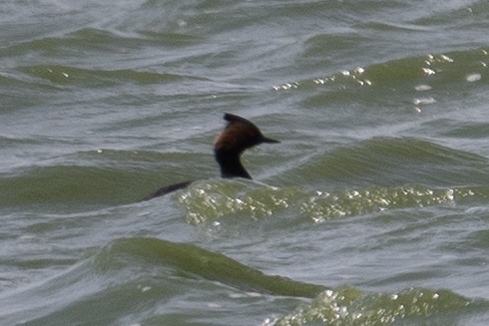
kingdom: Animalia
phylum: Chordata
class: Aves
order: Podicipediformes
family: Podicipedidae
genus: Podiceps
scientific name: Podiceps nigricollis
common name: Black-necked grebe
